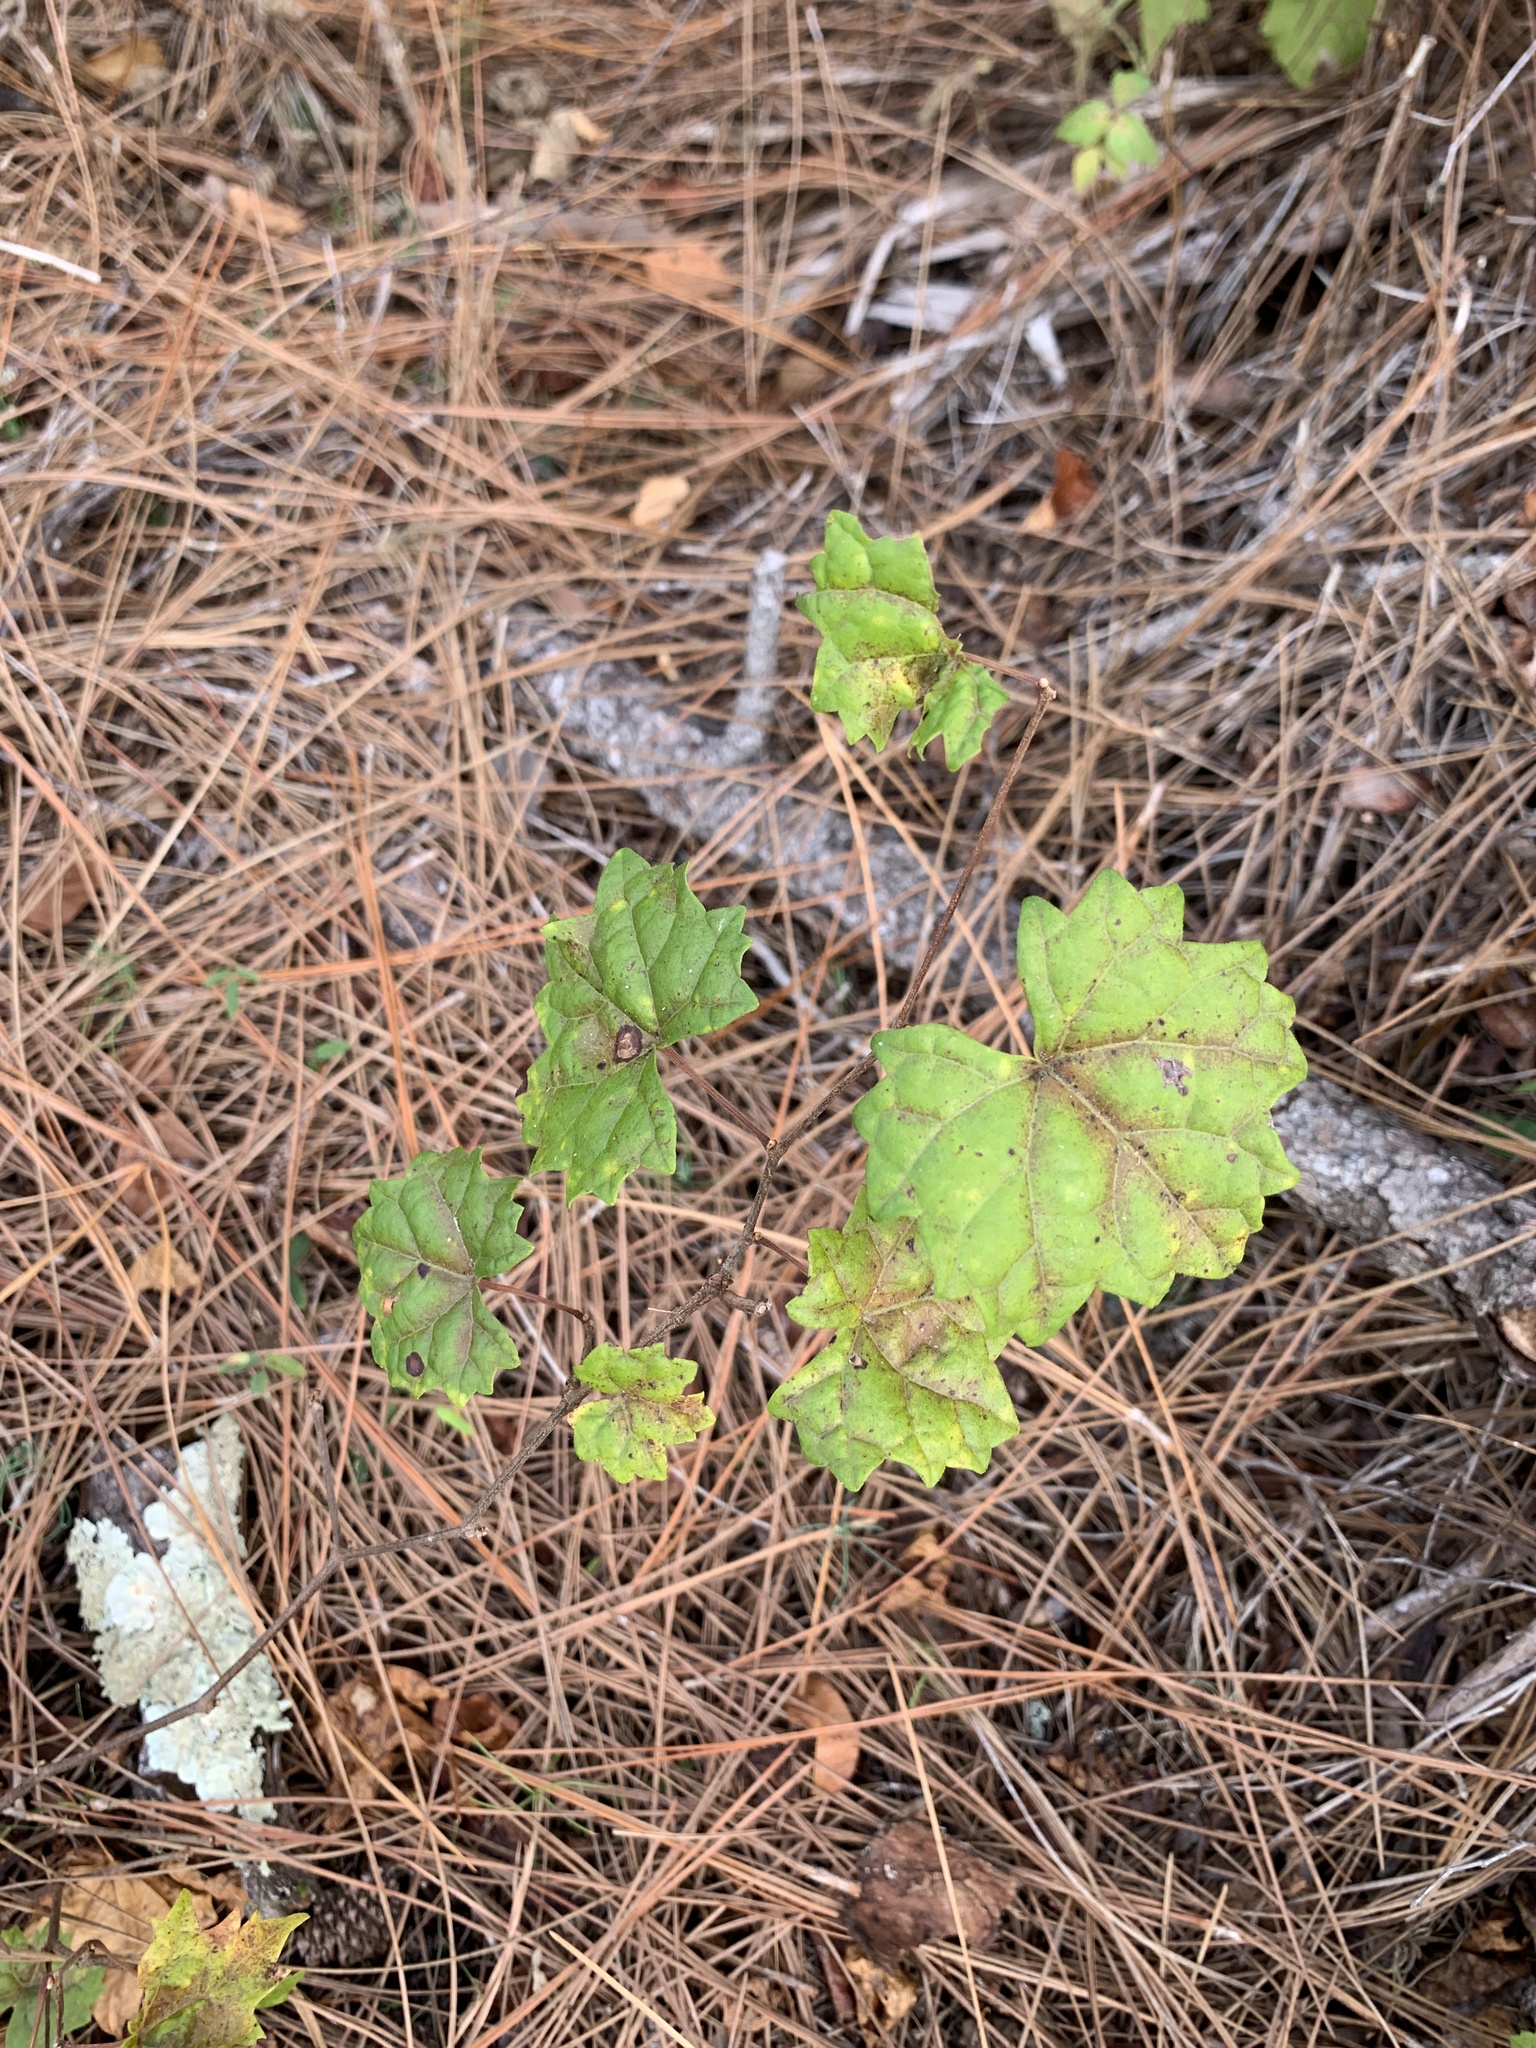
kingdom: Plantae
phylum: Tracheophyta
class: Magnoliopsida
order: Vitales
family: Vitaceae
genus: Vitis
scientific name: Vitis rotundifolia
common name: Muscadine grape
